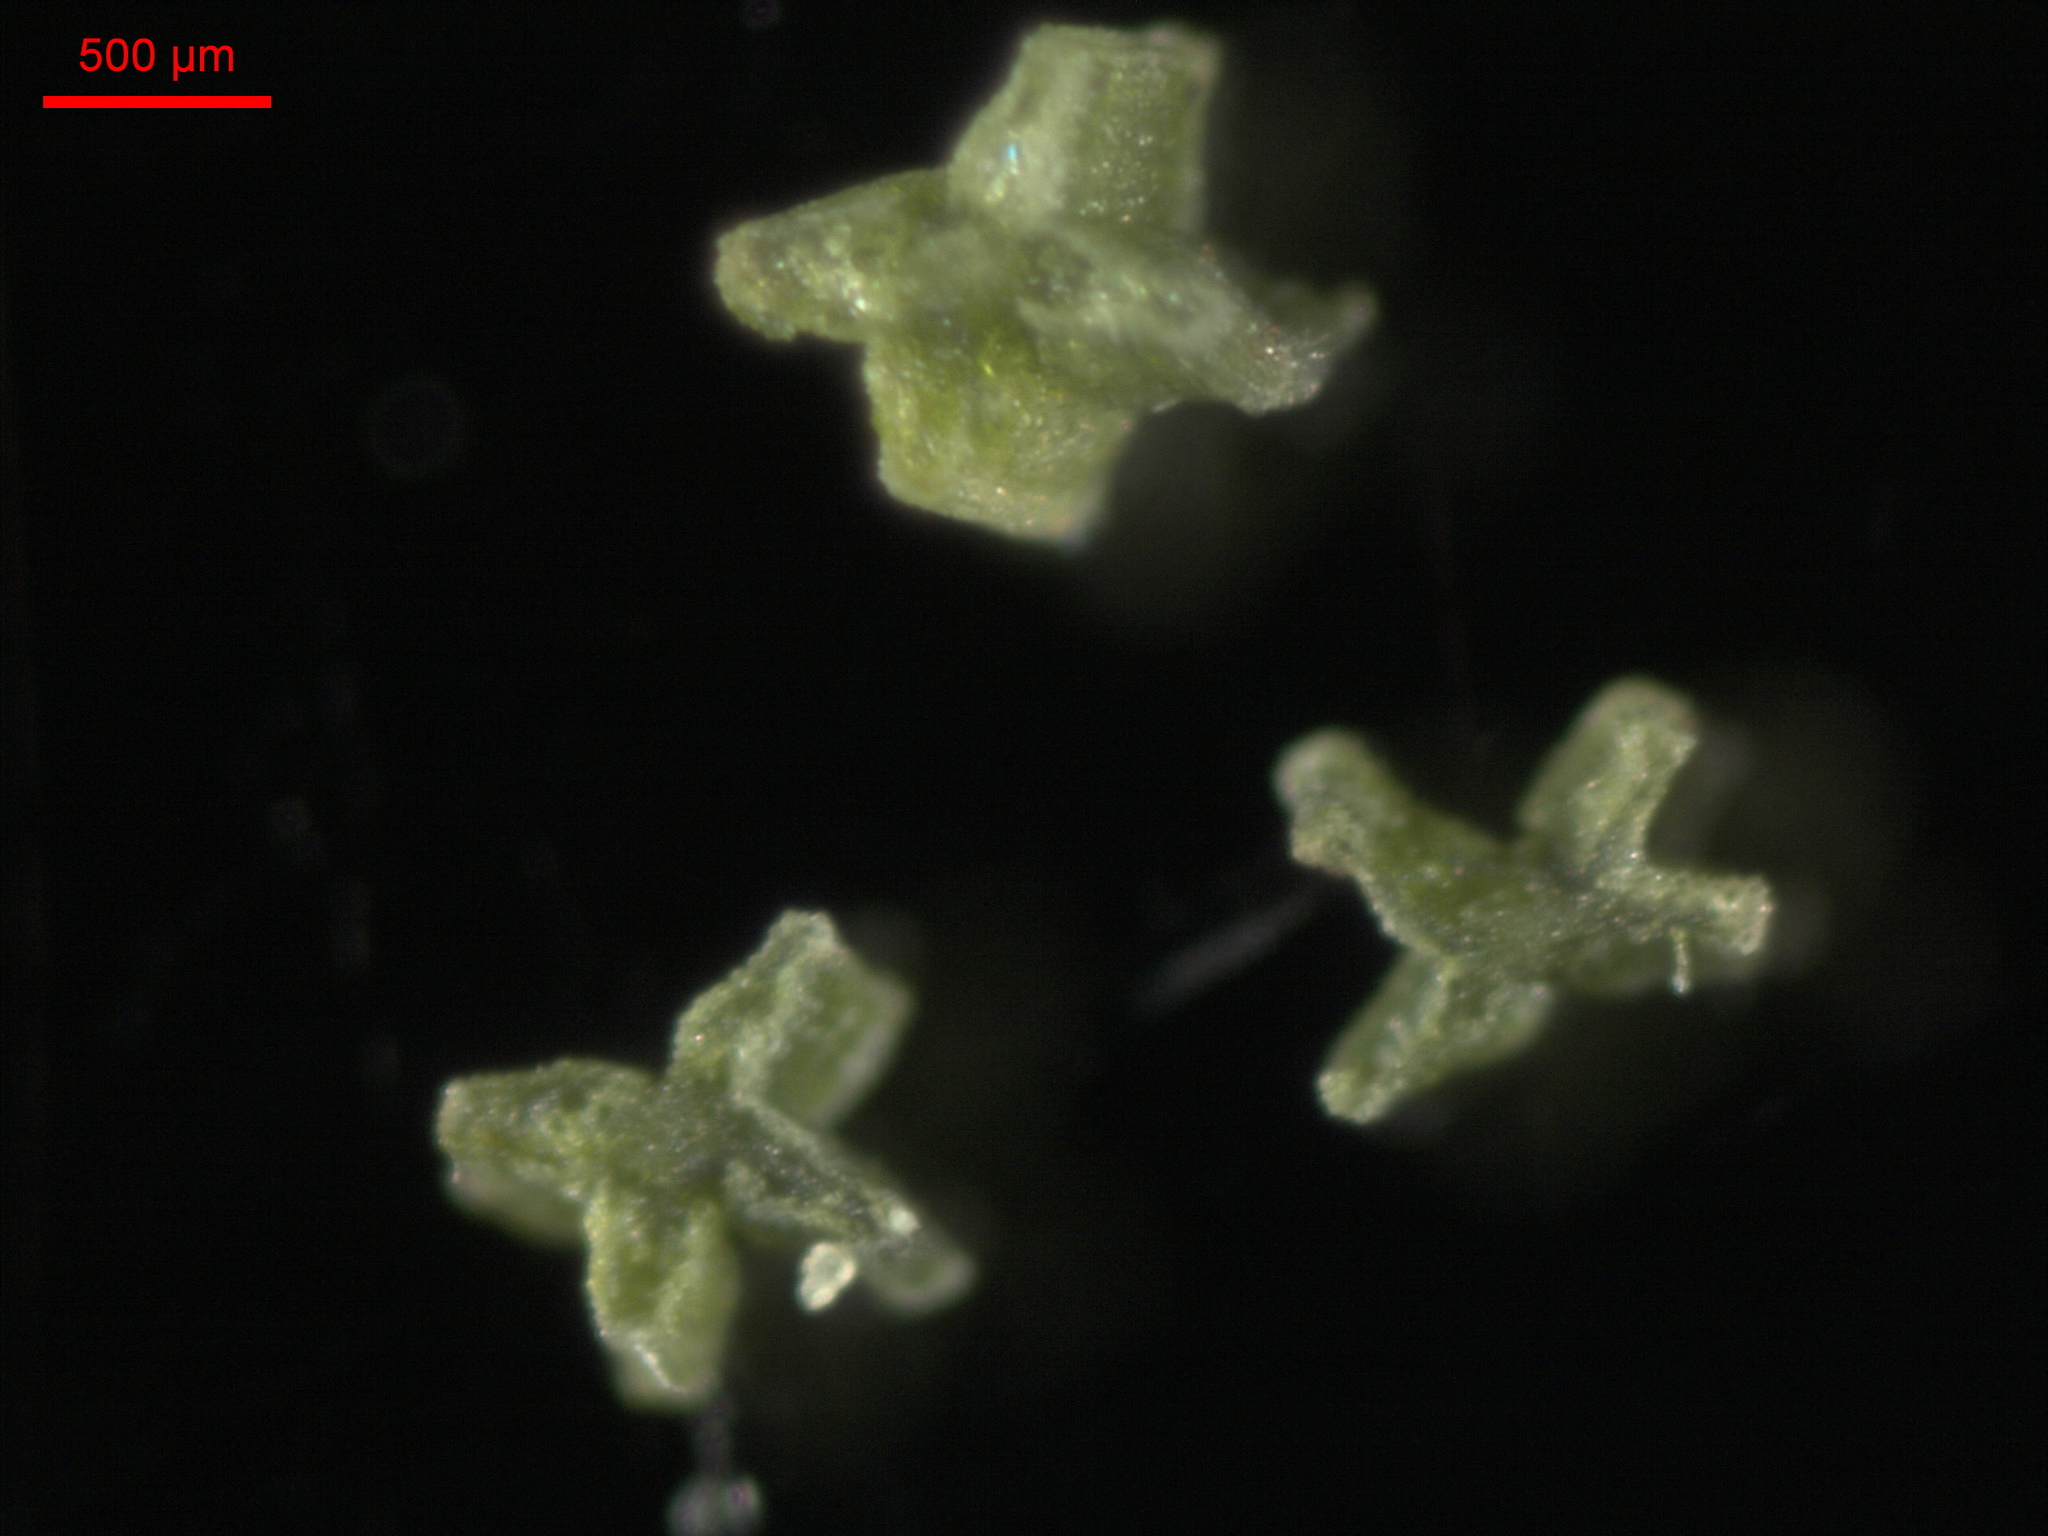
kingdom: Plantae
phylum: Tracheophyta
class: Polypodiopsida
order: Equisetales
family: Equisetaceae
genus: Equisetum
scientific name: Equisetum sylvaticum
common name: Wood horsetail
